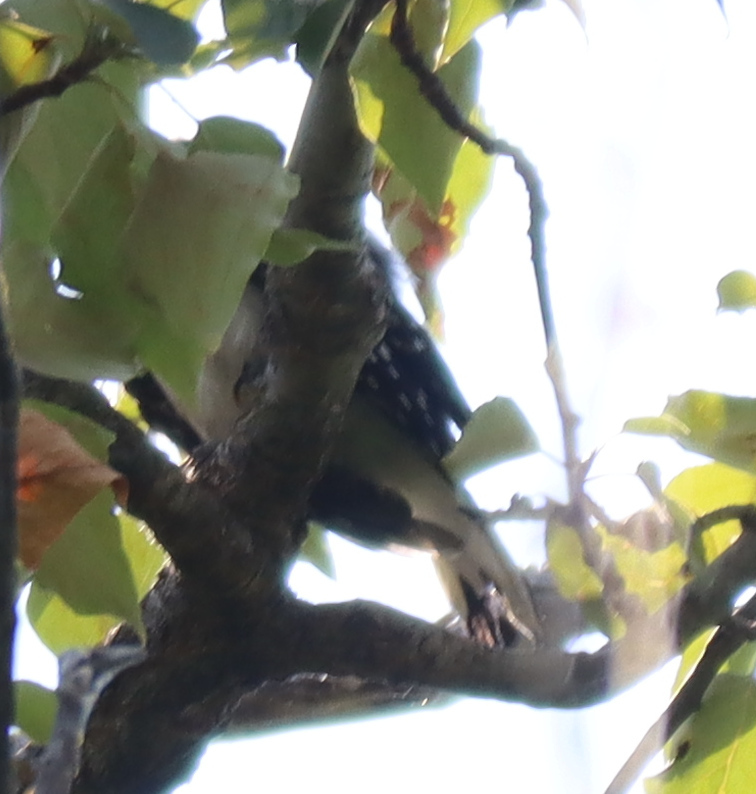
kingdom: Animalia
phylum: Chordata
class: Aves
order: Piciformes
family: Picidae
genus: Leuconotopicus
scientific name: Leuconotopicus villosus
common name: Hairy woodpecker
